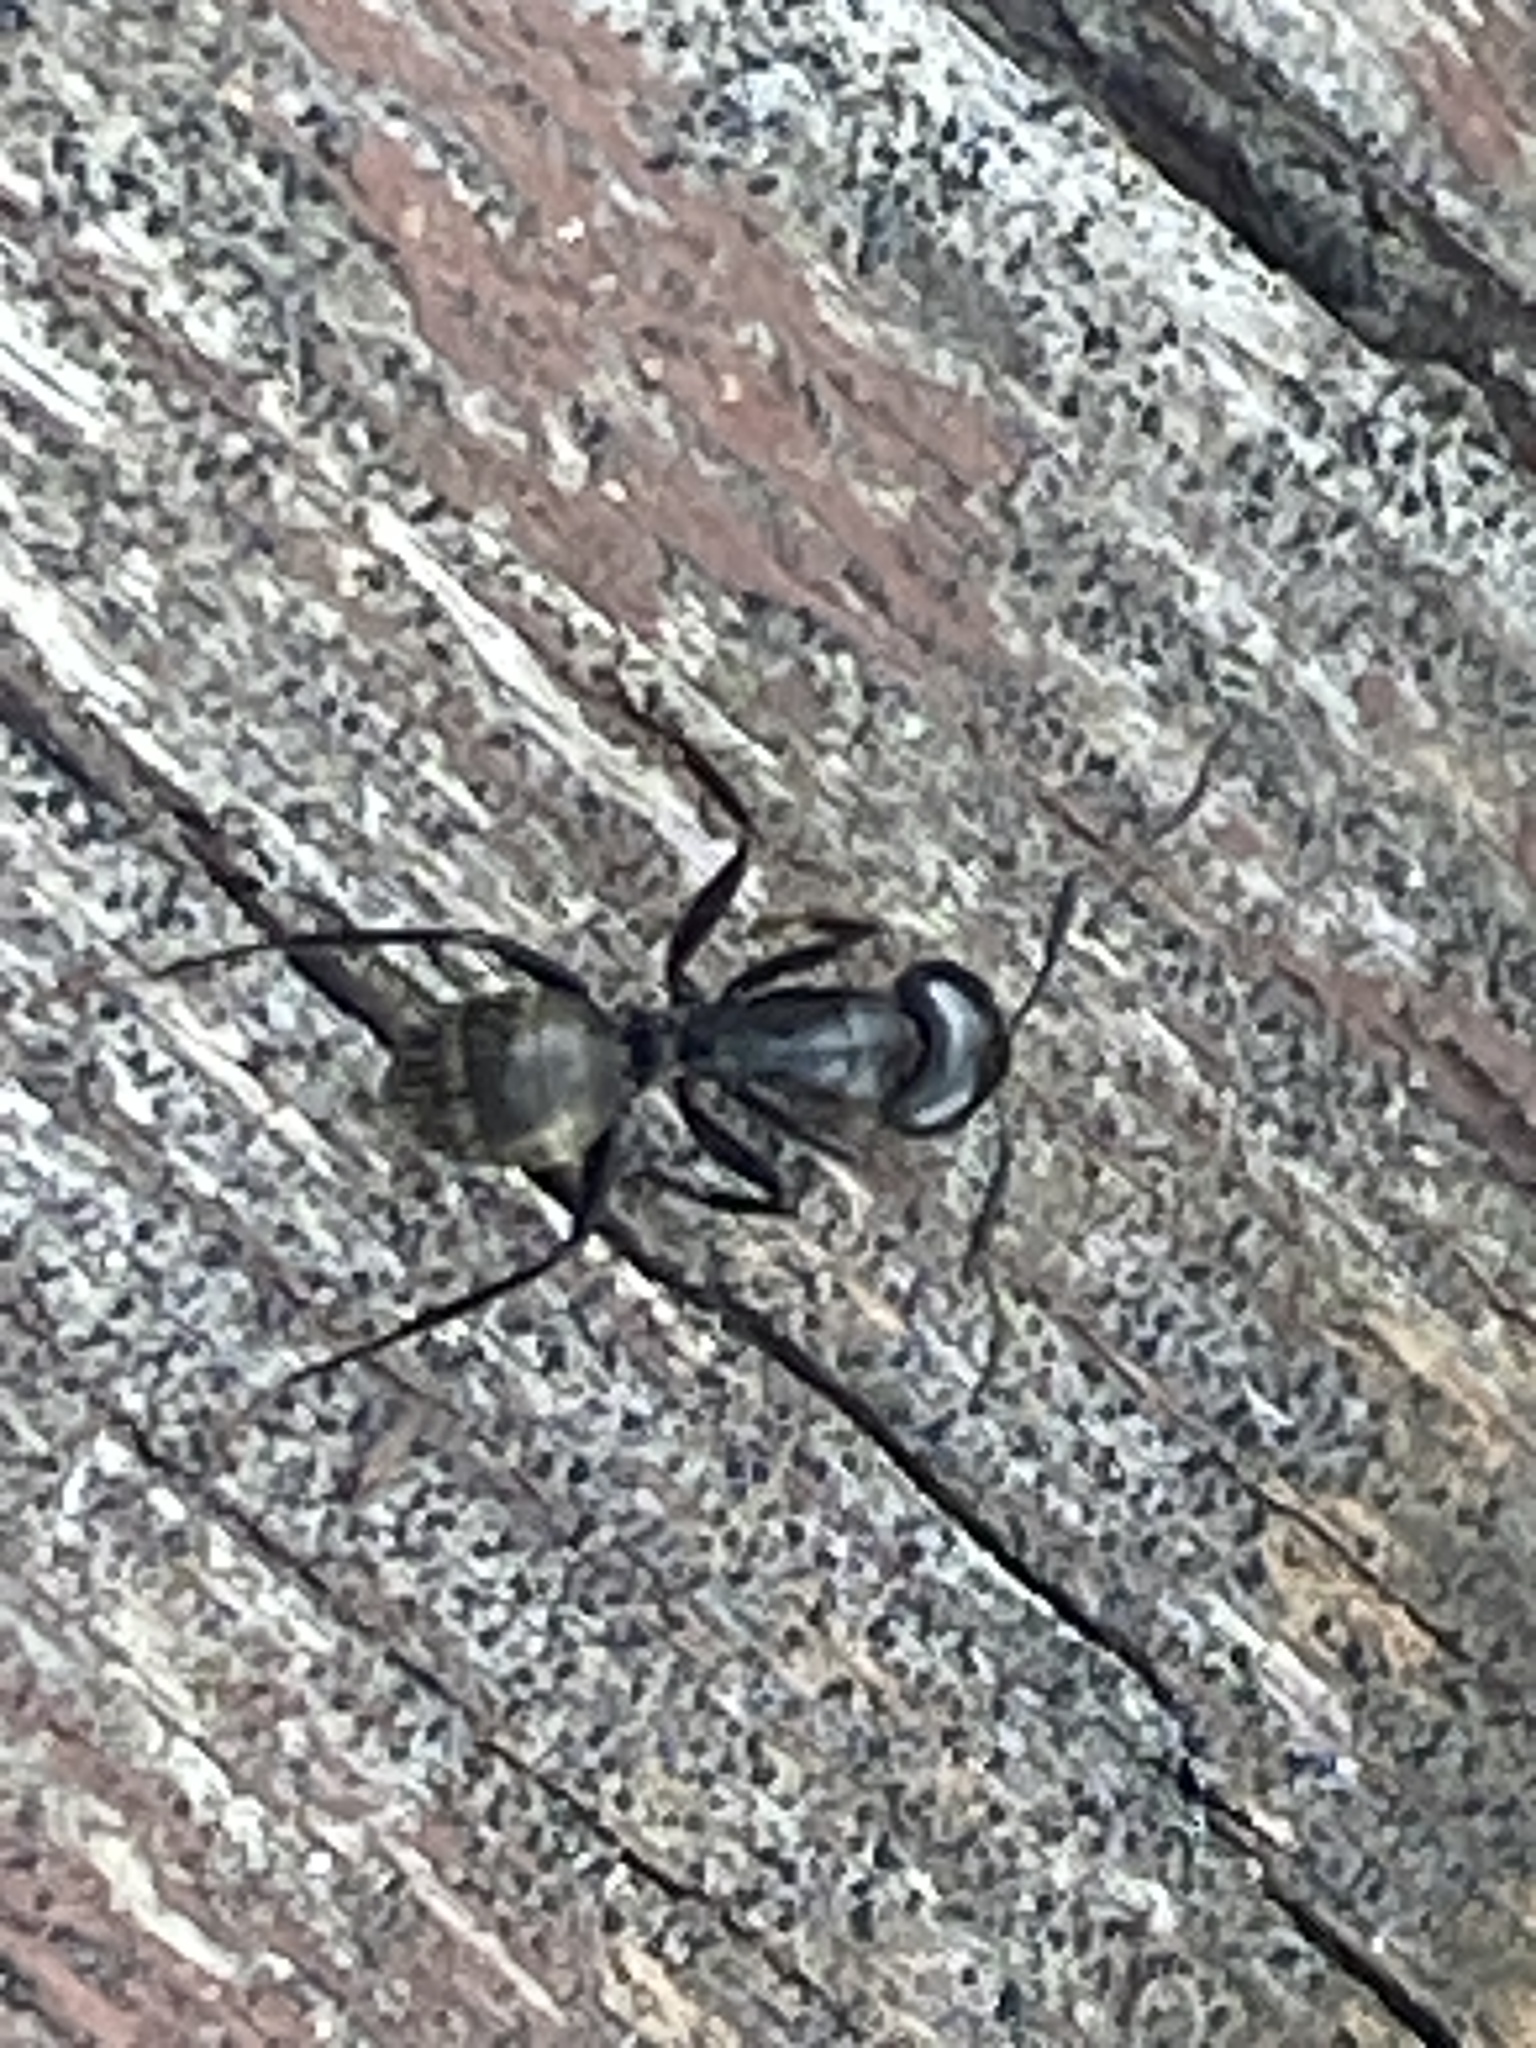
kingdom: Animalia
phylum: Arthropoda
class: Insecta
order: Hymenoptera
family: Formicidae
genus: Camponotus
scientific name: Camponotus pennsylvanicus
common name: Black carpenter ant
